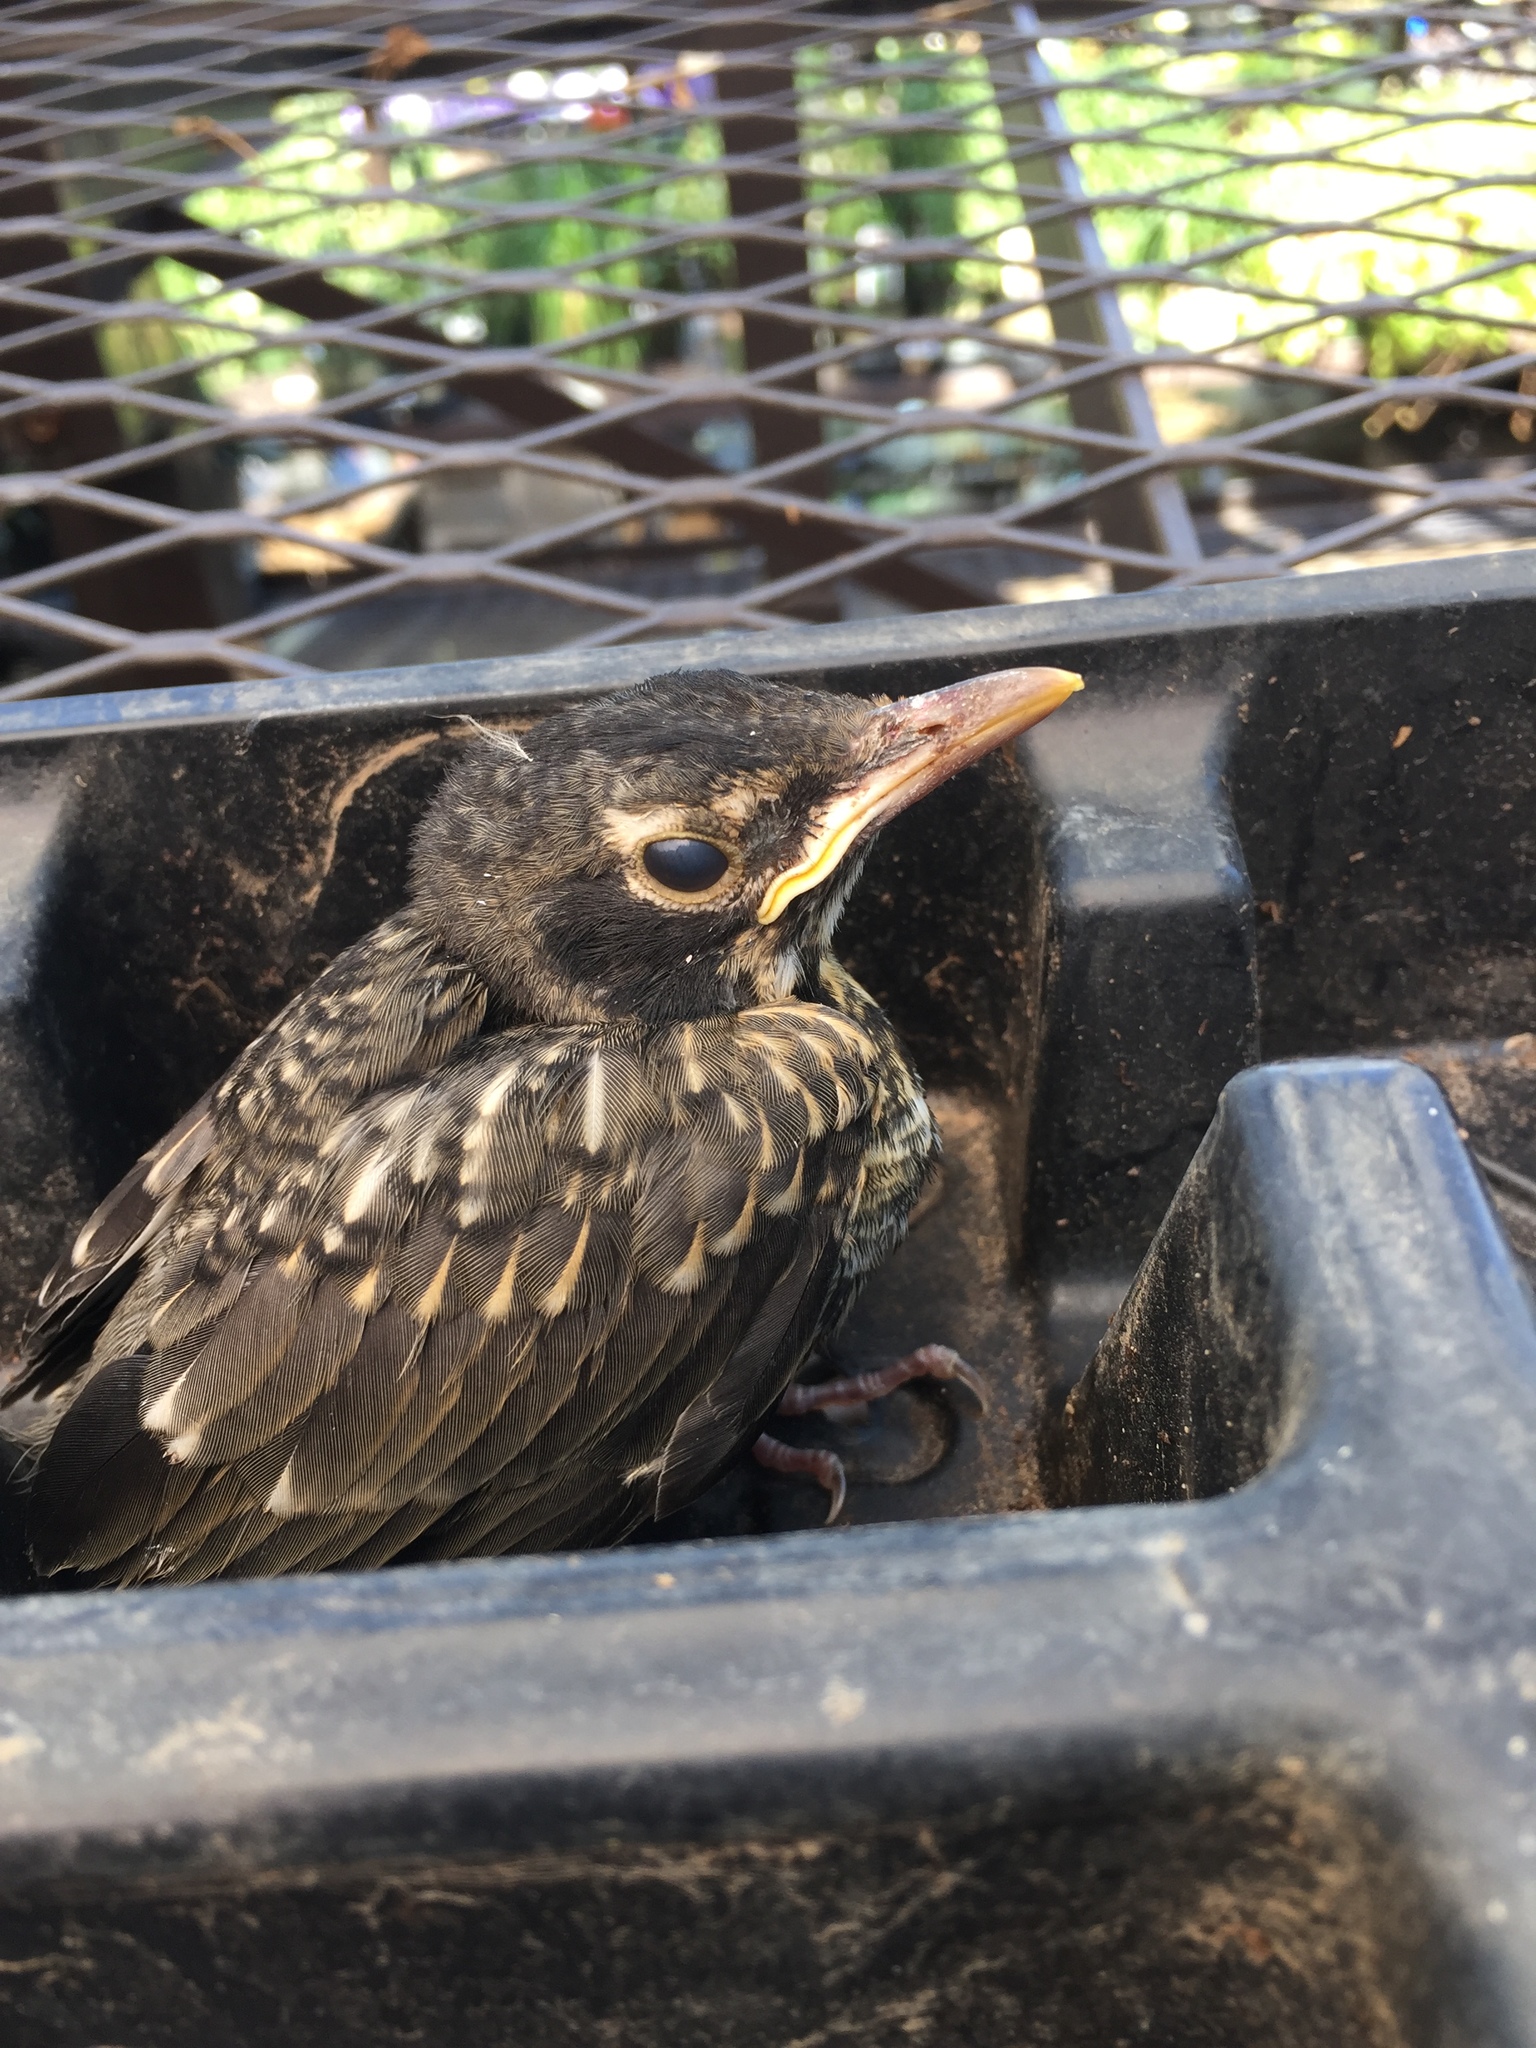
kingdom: Animalia
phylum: Chordata
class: Aves
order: Passeriformes
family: Turdidae
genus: Turdus
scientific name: Turdus migratorius
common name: American robin
